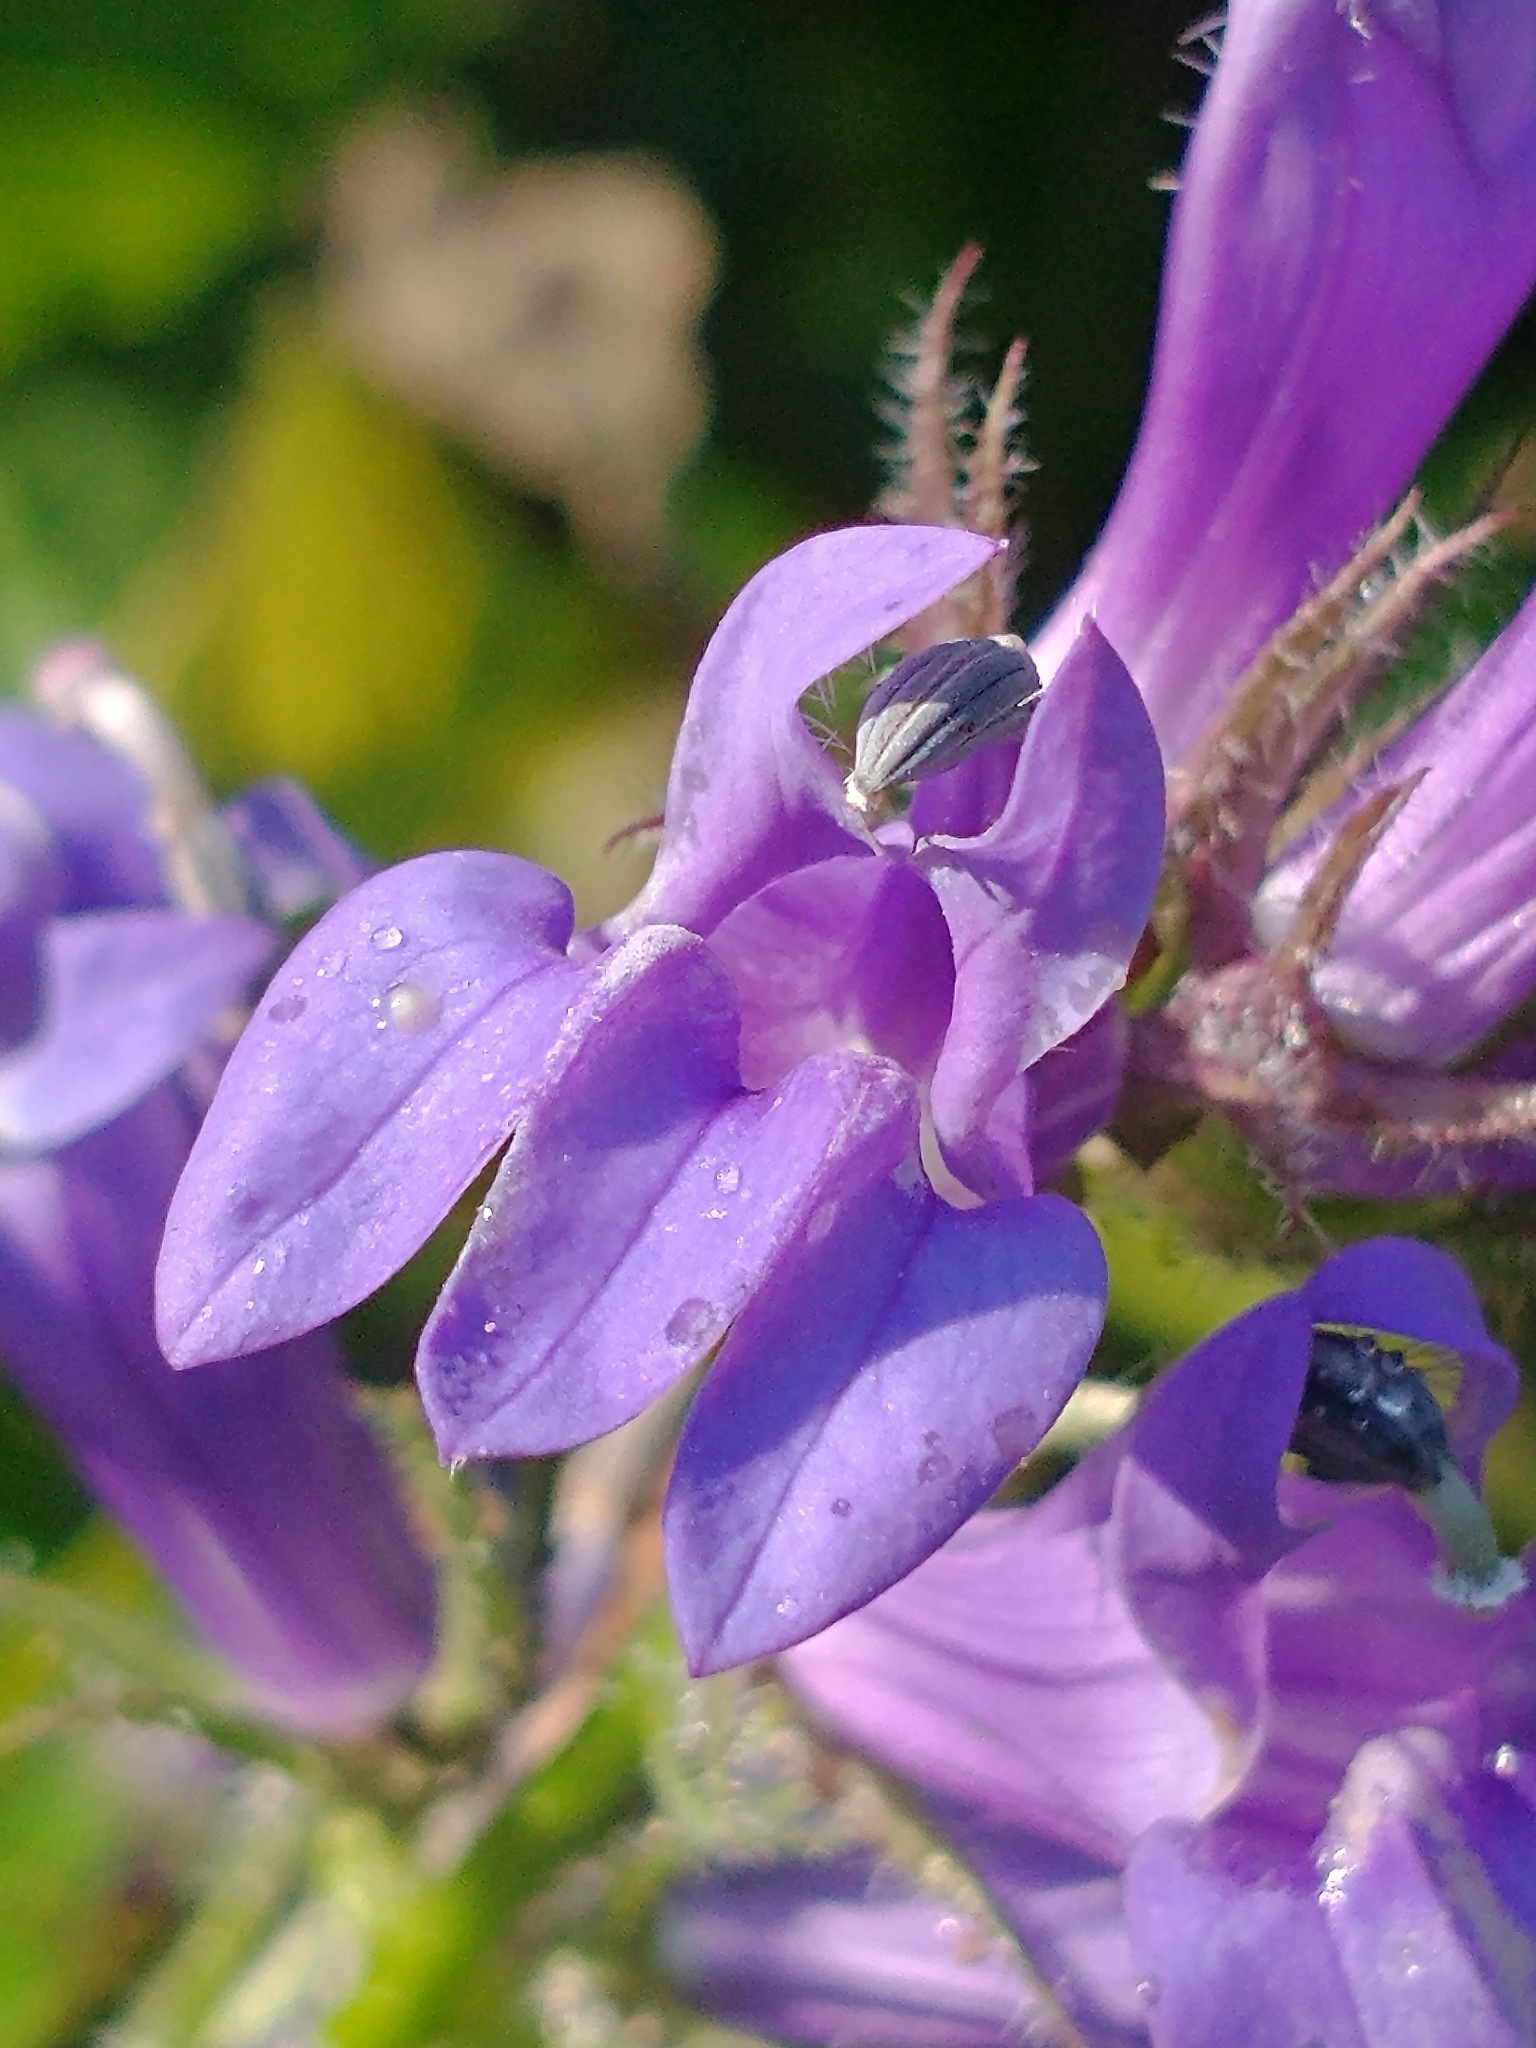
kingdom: Plantae
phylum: Tracheophyta
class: Magnoliopsida
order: Asterales
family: Campanulaceae
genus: Lobelia
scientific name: Lobelia siphilitica
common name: Great lobelia
